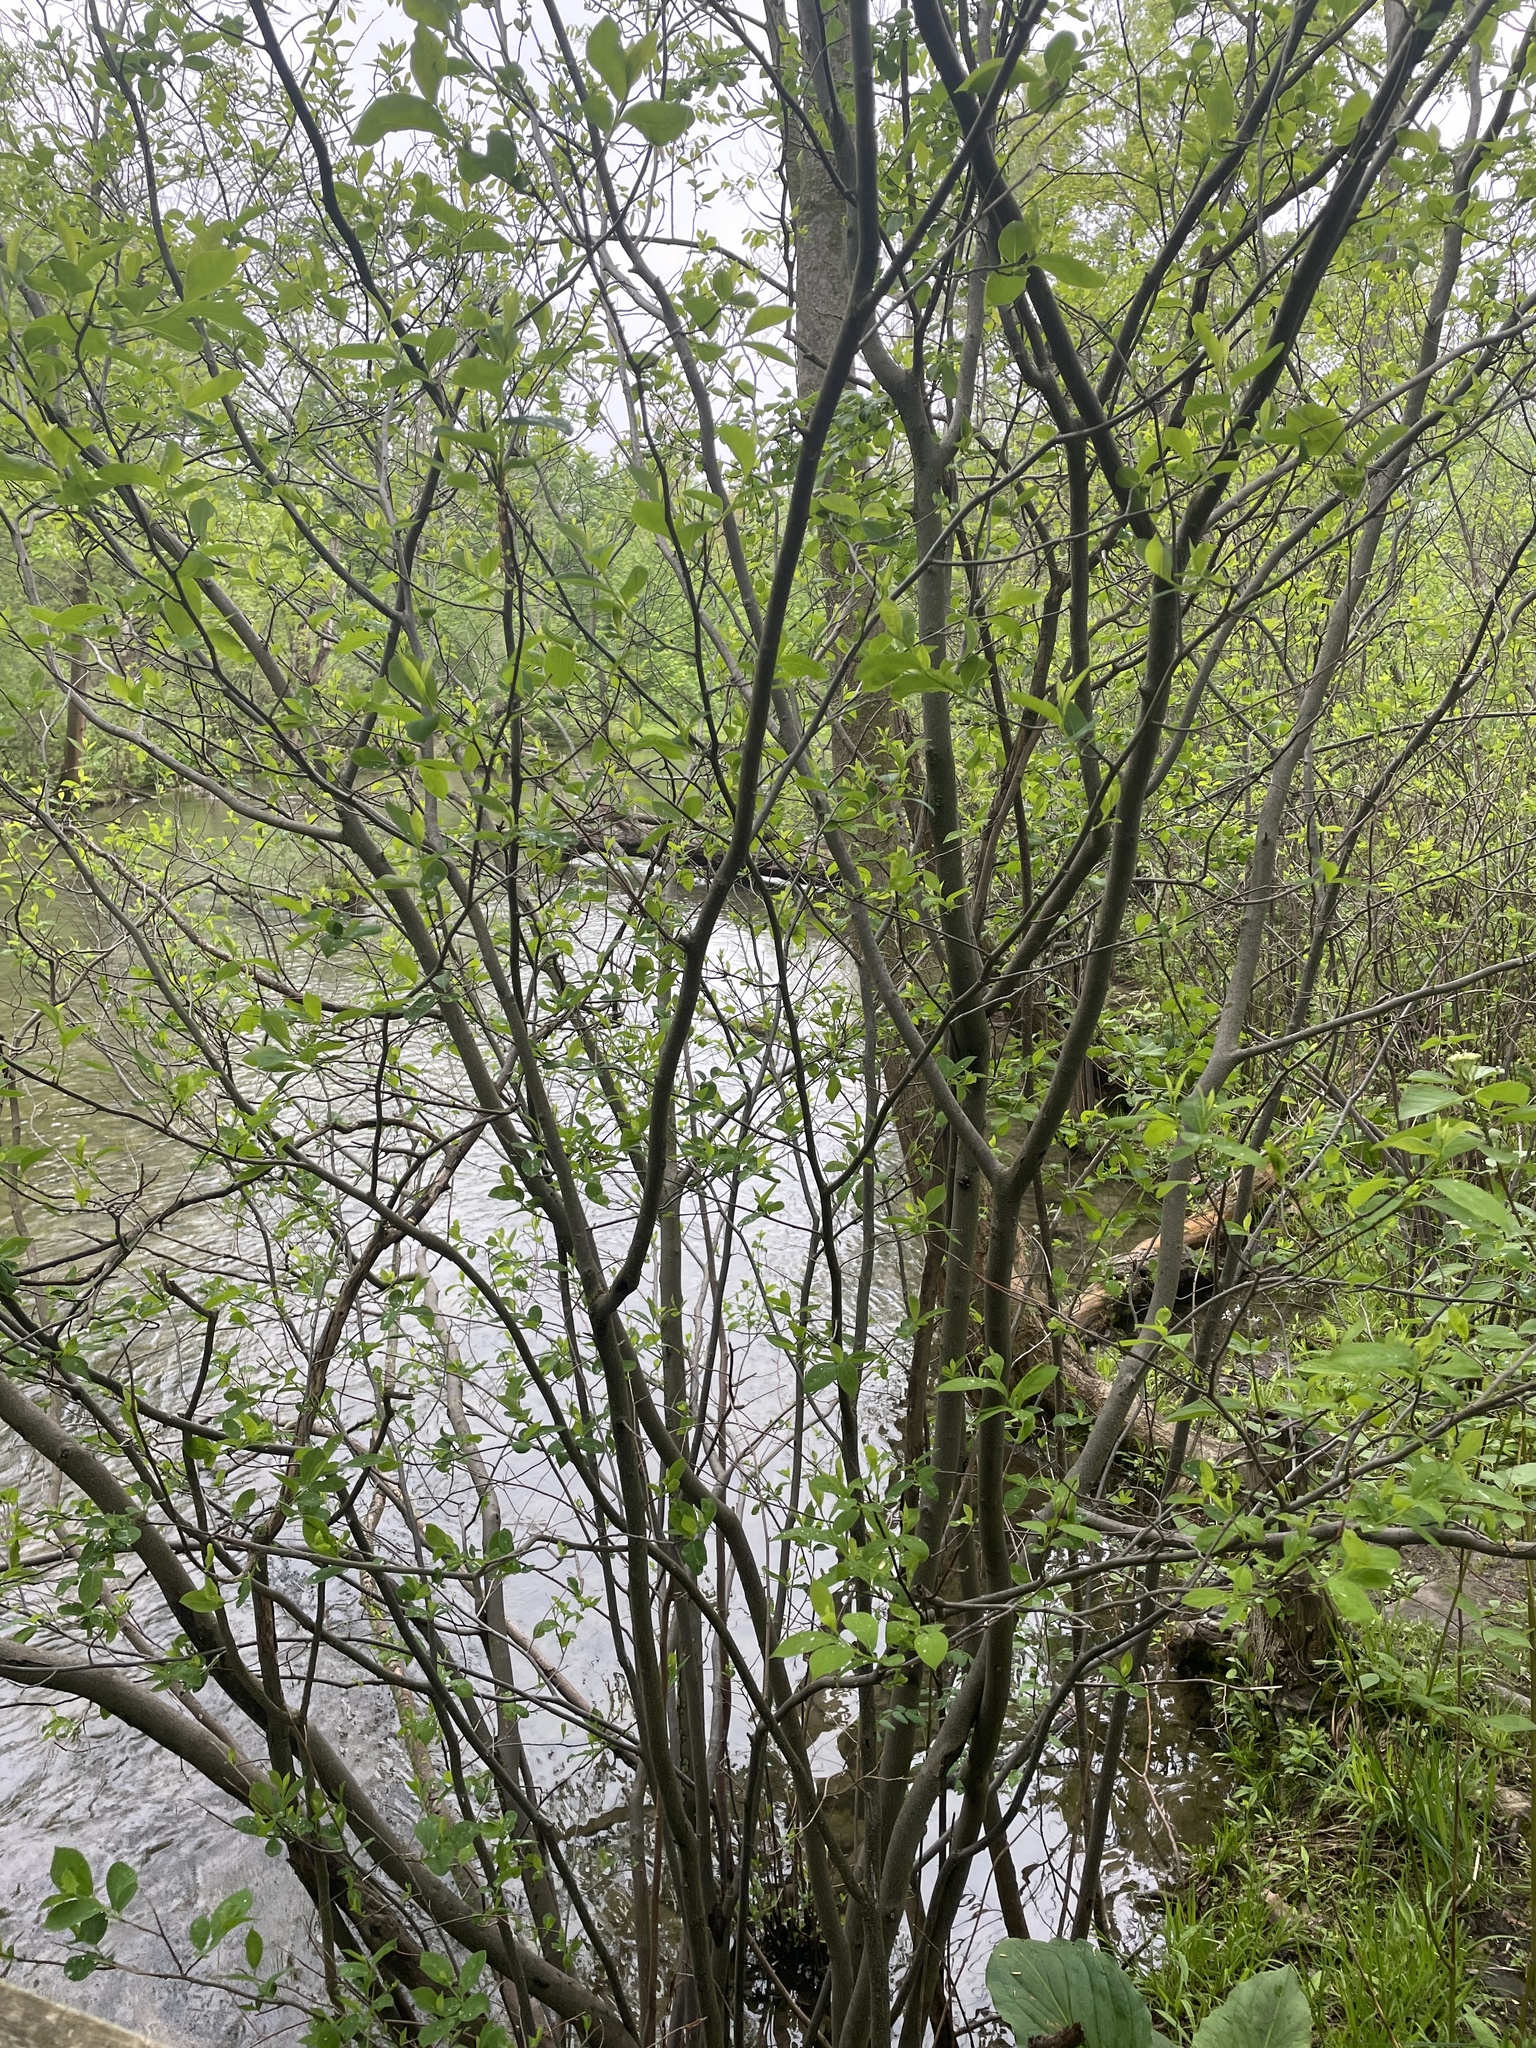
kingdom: Plantae
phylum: Tracheophyta
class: Magnoliopsida
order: Laurales
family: Lauraceae
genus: Lindera
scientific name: Lindera benzoin
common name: Spicebush
